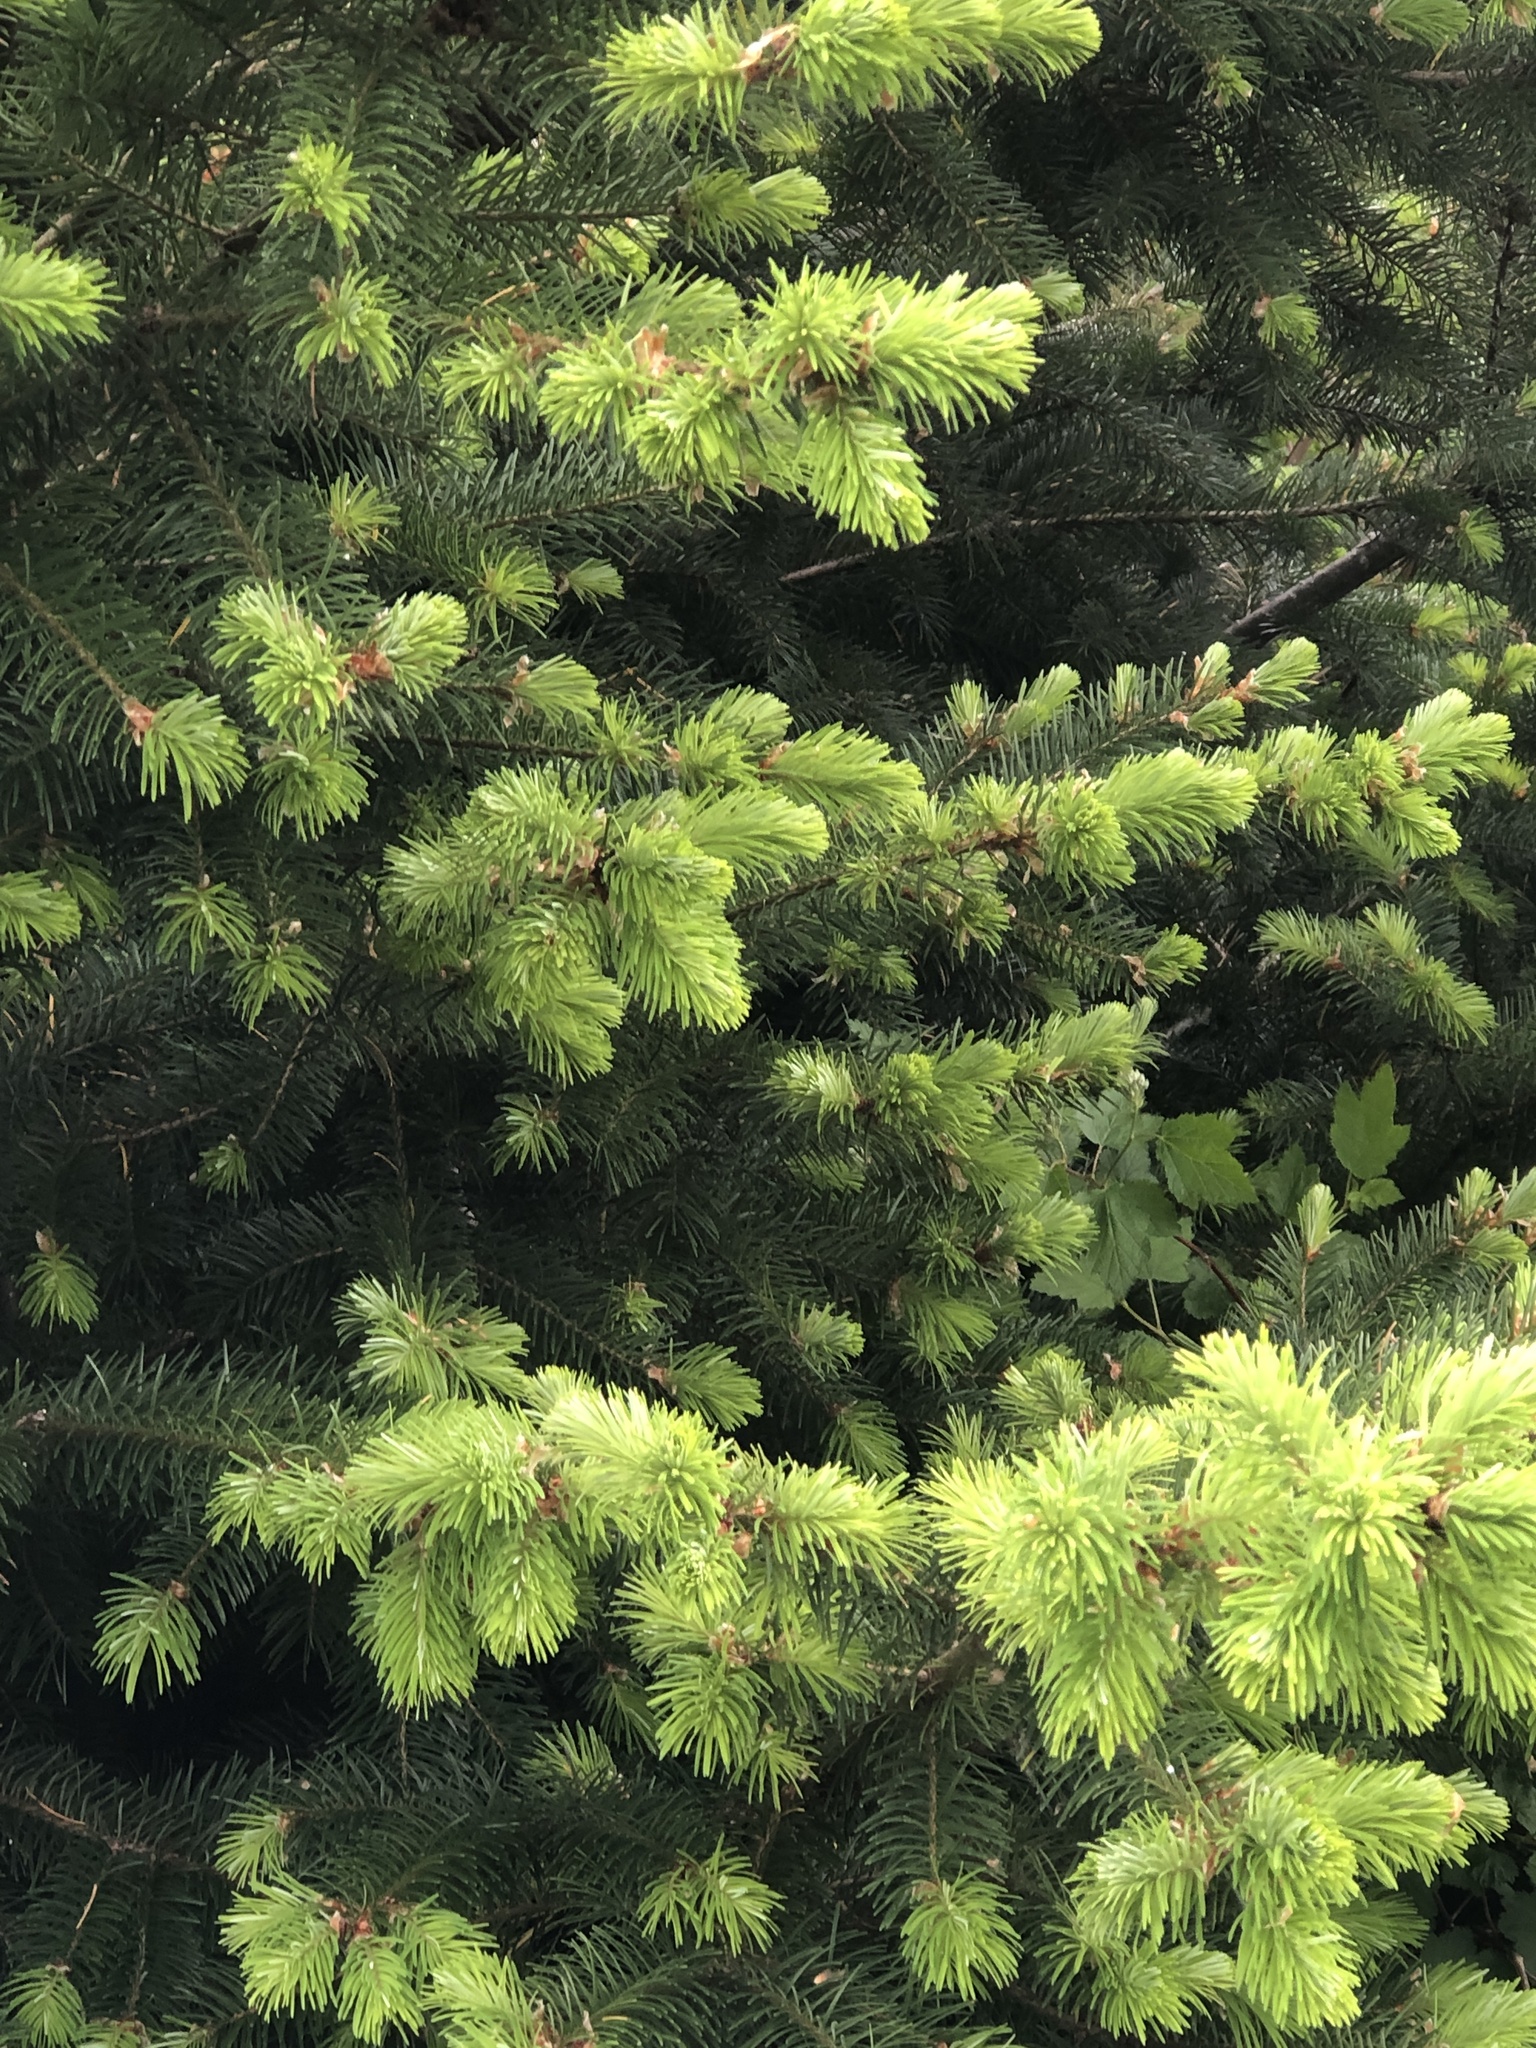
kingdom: Plantae
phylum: Tracheophyta
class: Pinopsida
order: Pinales
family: Pinaceae
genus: Pseudotsuga
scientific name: Pseudotsuga menziesii
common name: Douglas fir
